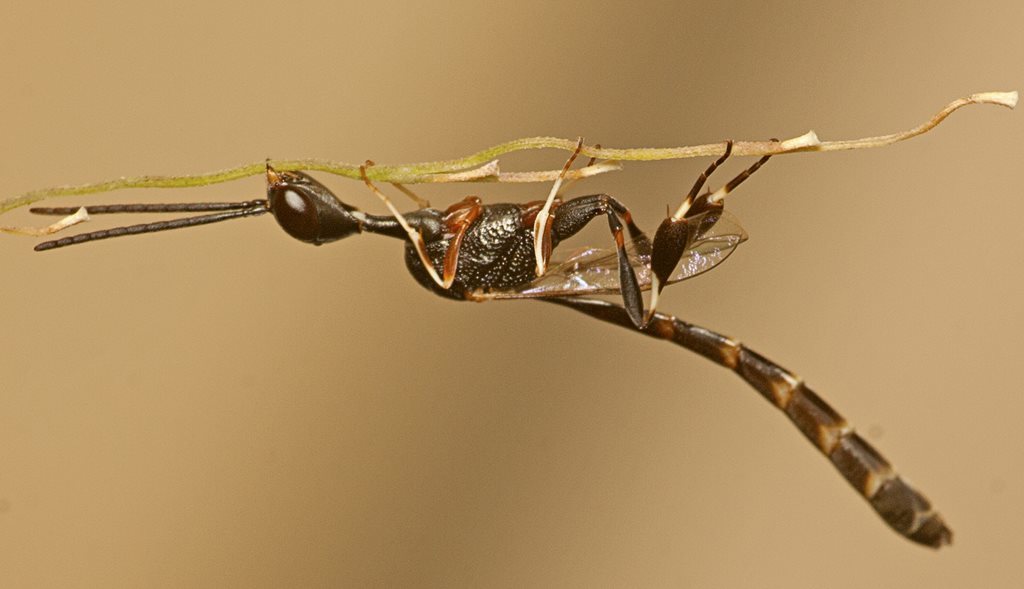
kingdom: Animalia
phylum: Arthropoda
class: Insecta
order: Hymenoptera
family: Gasteruptiidae
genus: Gasteruption
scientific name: Gasteruption
